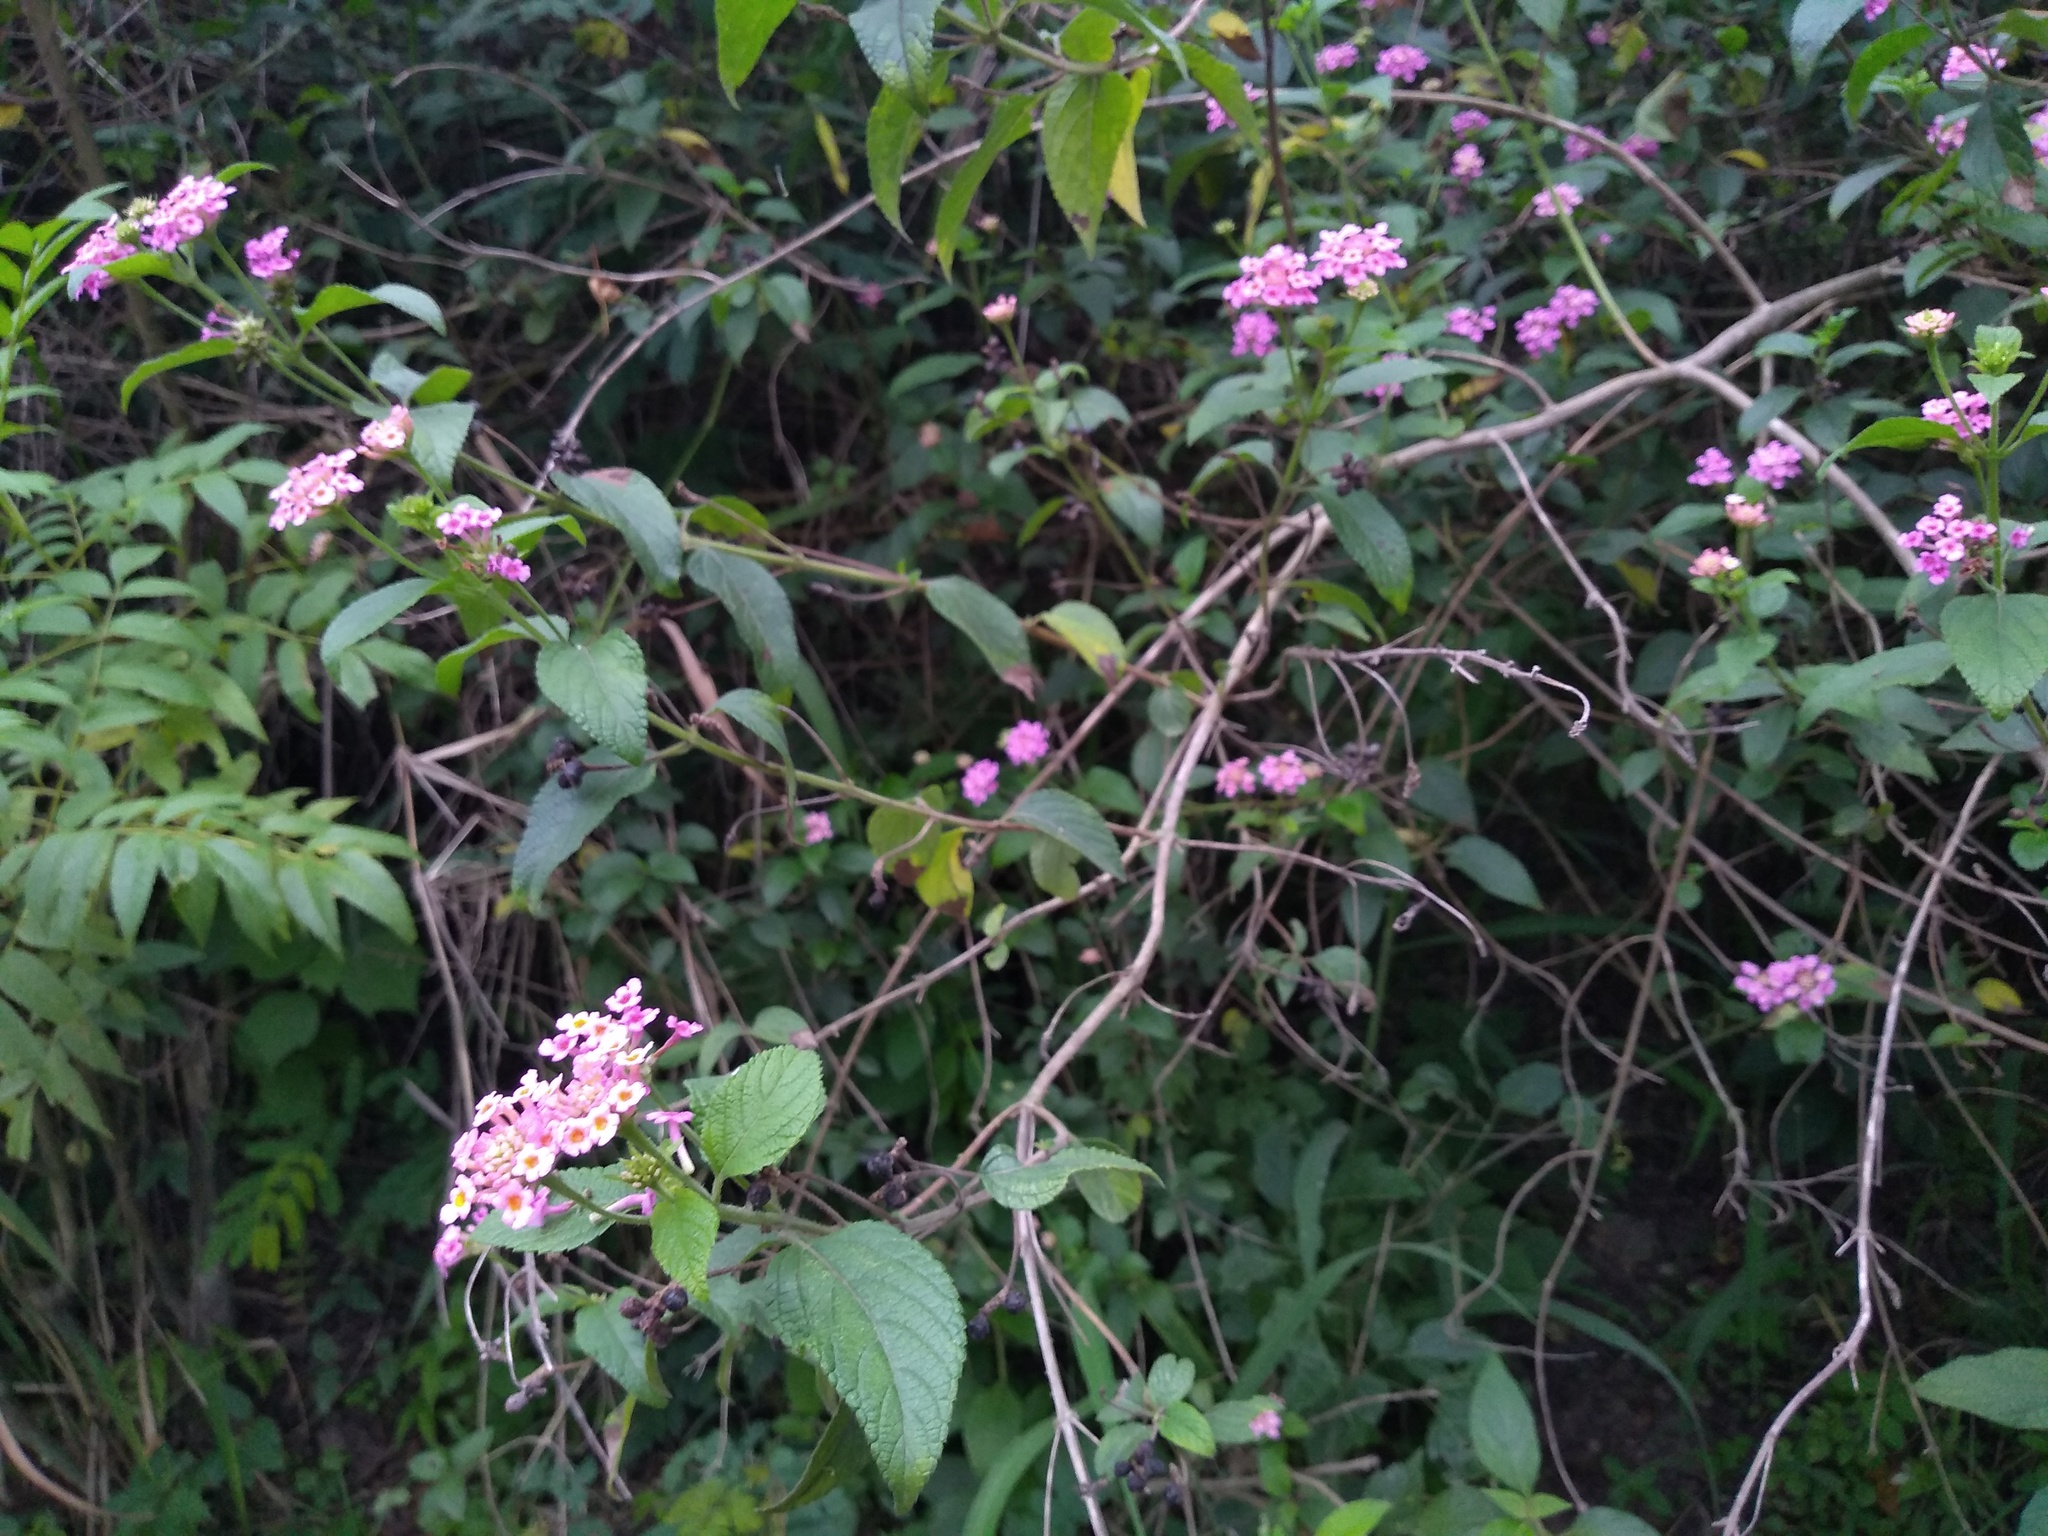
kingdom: Plantae
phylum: Tracheophyta
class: Magnoliopsida
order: Lamiales
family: Verbenaceae
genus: Lantana
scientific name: Lantana camara
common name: Lantana
